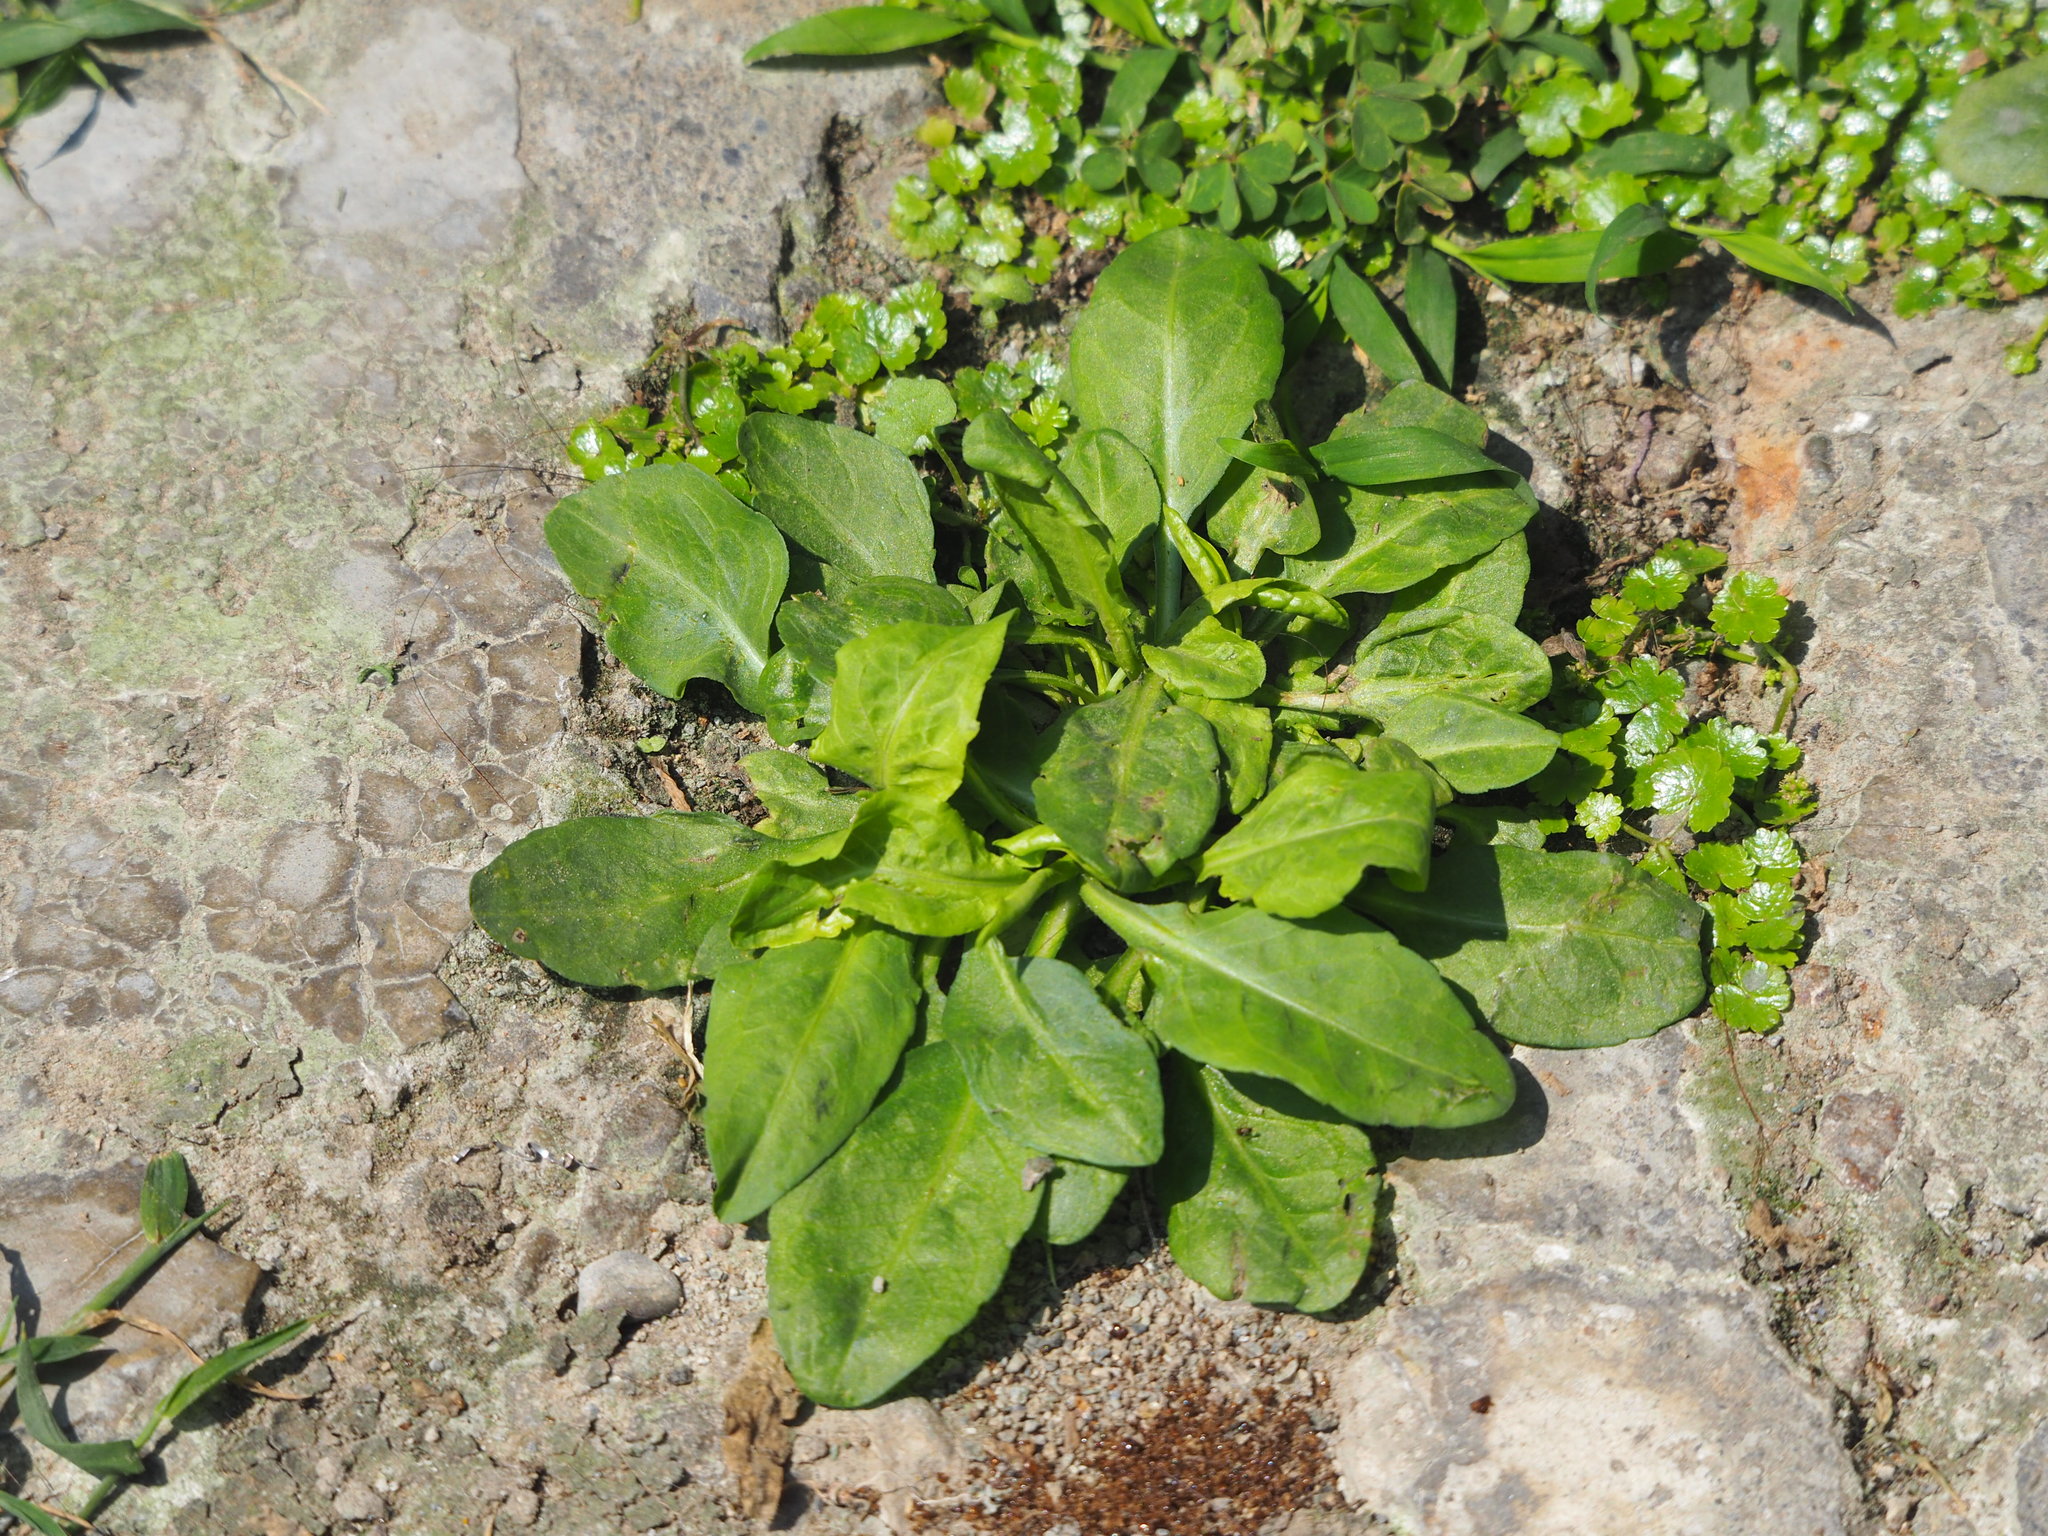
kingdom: Plantae
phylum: Tracheophyta
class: Magnoliopsida
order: Asterales
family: Asteraceae
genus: Symphyotrichum
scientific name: Symphyotrichum subulatum
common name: Annual saltmarsh aster
